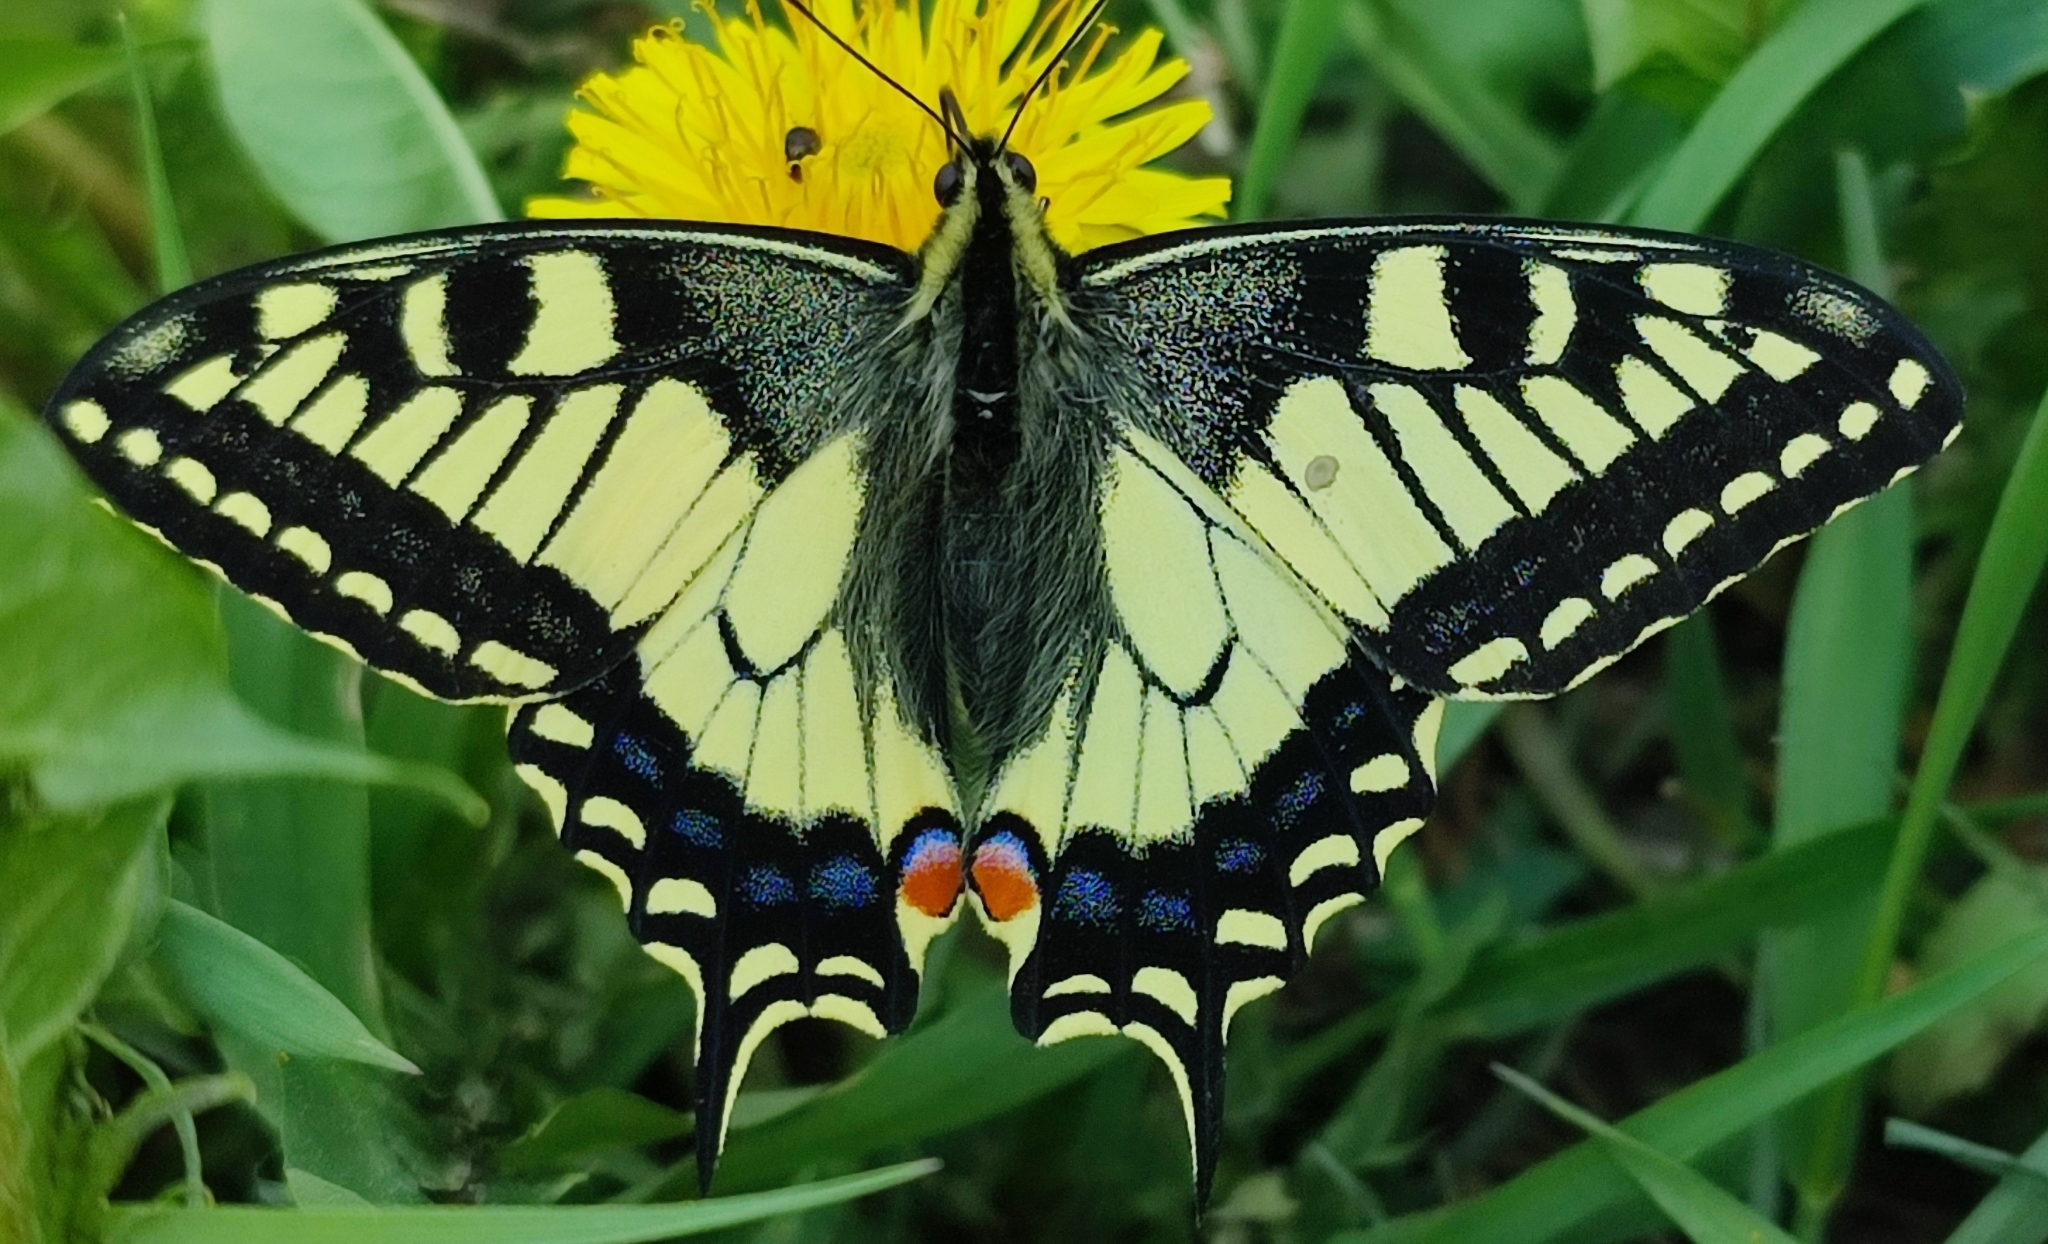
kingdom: Animalia
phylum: Arthropoda
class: Insecta
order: Lepidoptera
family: Papilionidae
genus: Papilio
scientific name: Papilio machaon
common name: Swallowtail
